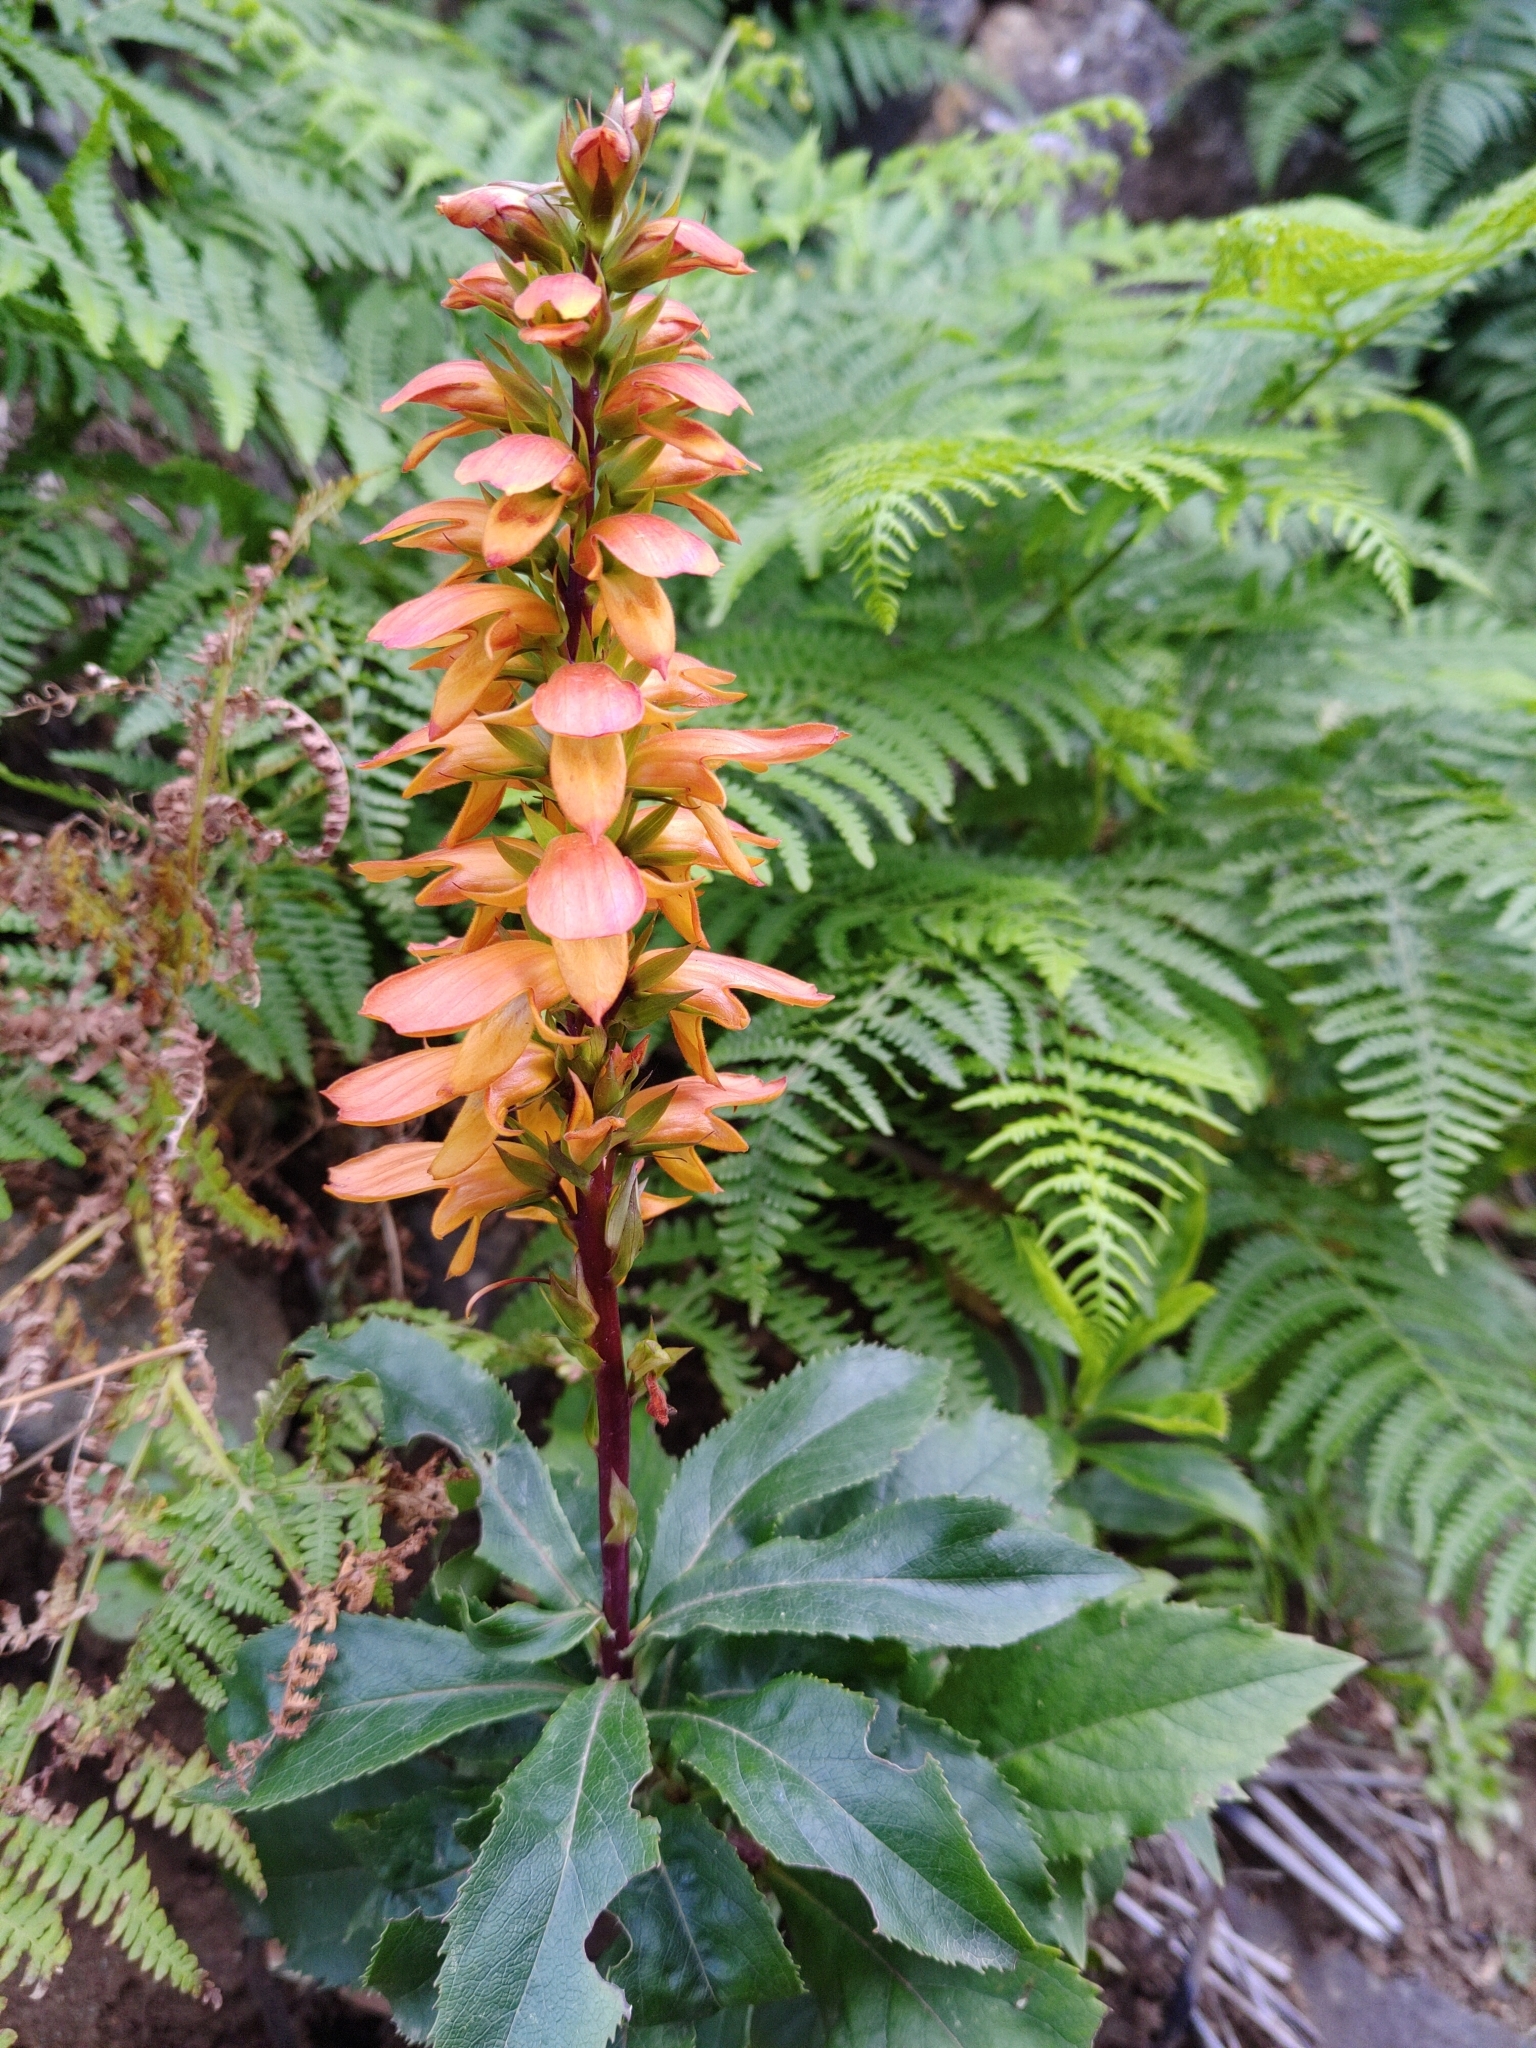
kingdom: Plantae
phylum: Tracheophyta
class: Magnoliopsida
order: Lamiales
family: Plantaginaceae
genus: Digitalis
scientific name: Digitalis canariensis
